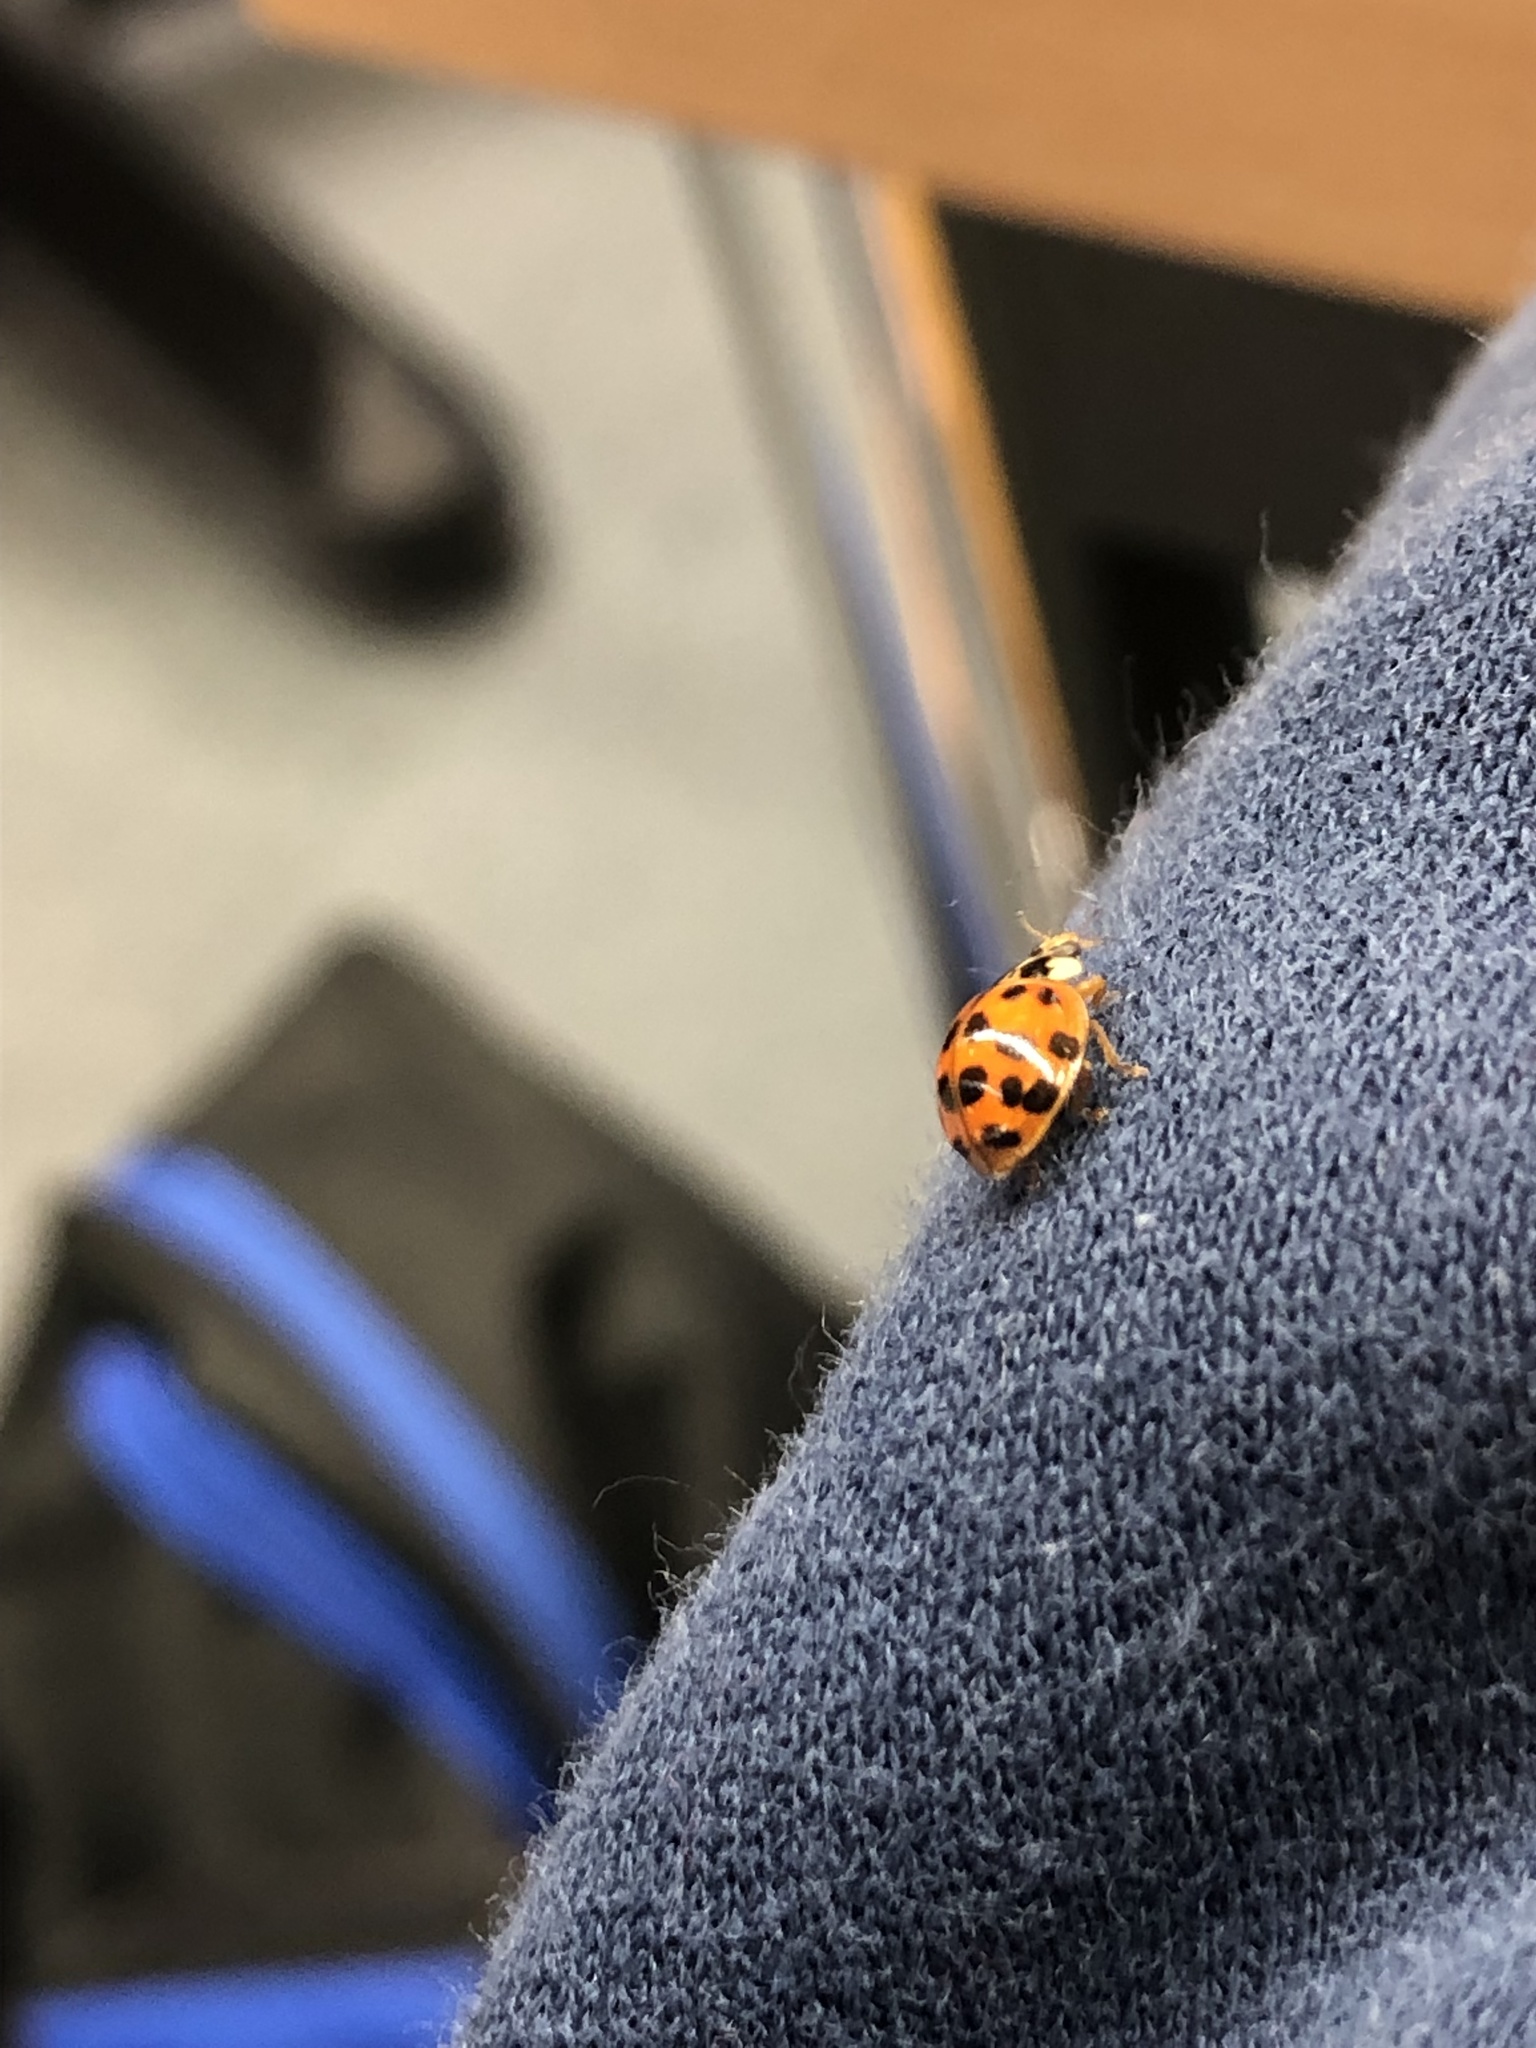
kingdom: Animalia
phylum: Arthropoda
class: Insecta
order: Coleoptera
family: Coccinellidae
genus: Harmonia
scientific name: Harmonia axyridis
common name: Harlequin ladybird
